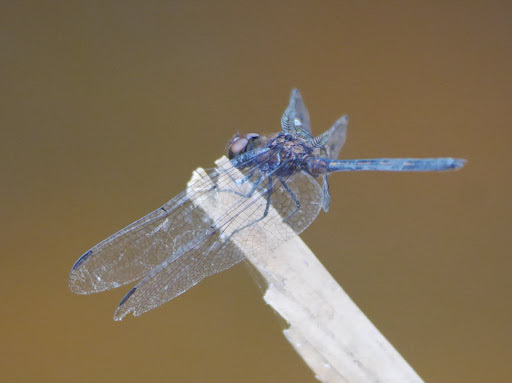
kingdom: Animalia
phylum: Arthropoda
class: Insecta
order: Odonata
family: Libellulidae
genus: Trithemis
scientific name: Trithemis aenea
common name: Bronze dropwing
